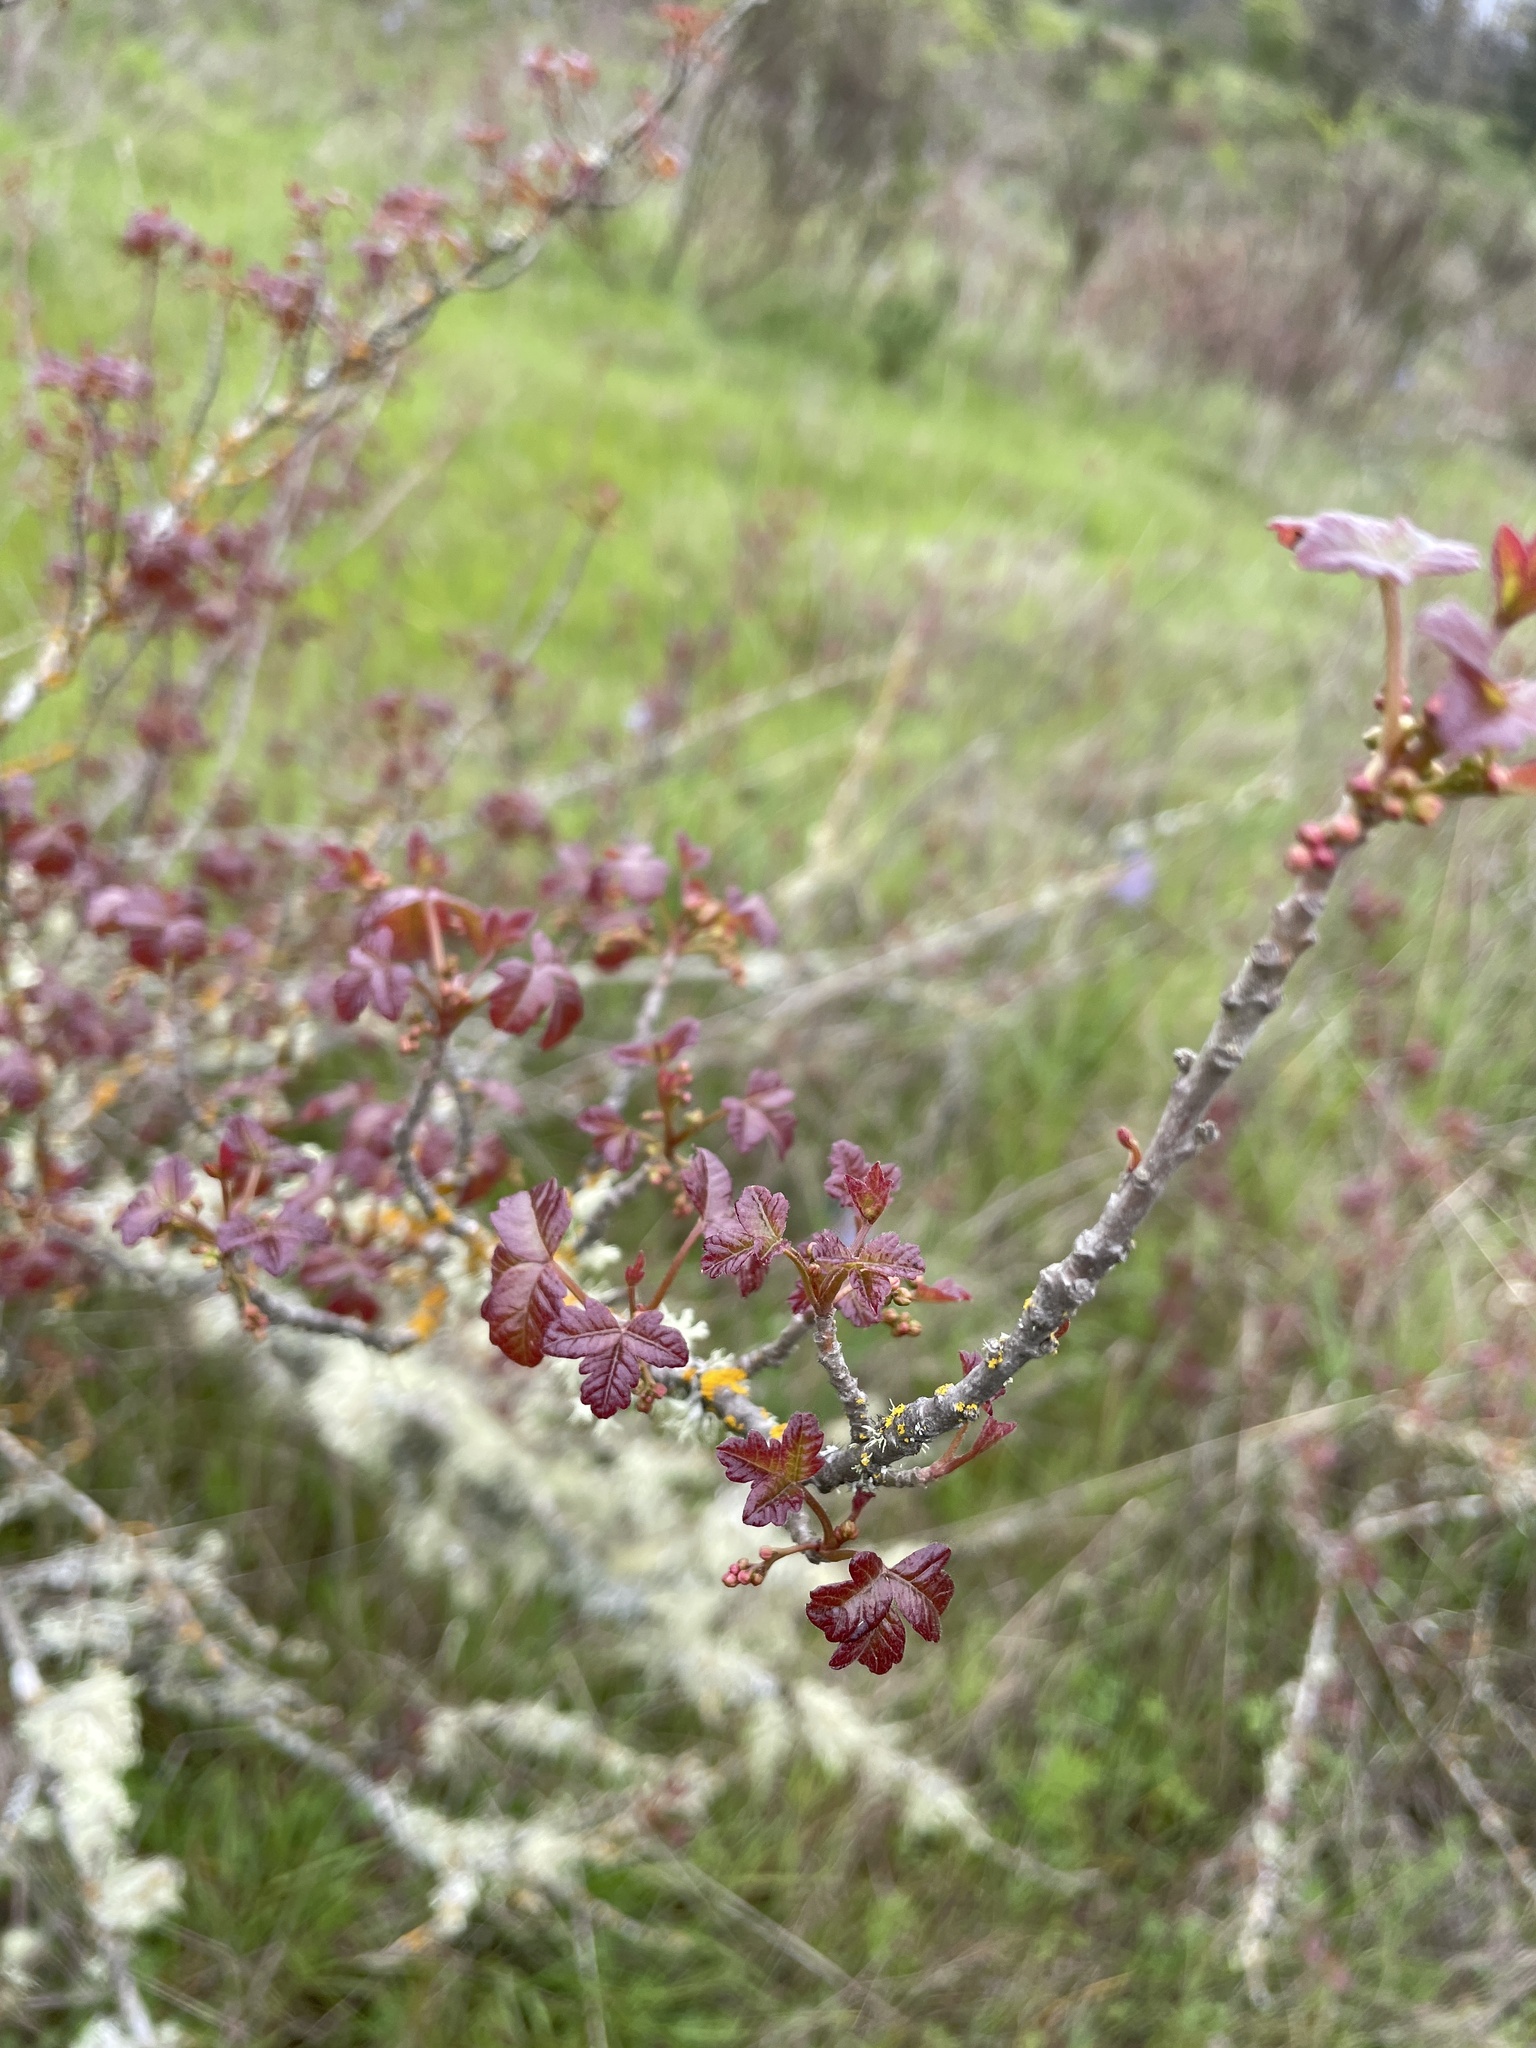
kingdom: Plantae
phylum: Tracheophyta
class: Magnoliopsida
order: Sapindales
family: Anacardiaceae
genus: Toxicodendron
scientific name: Toxicodendron diversilobum
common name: Pacific poison-oak
